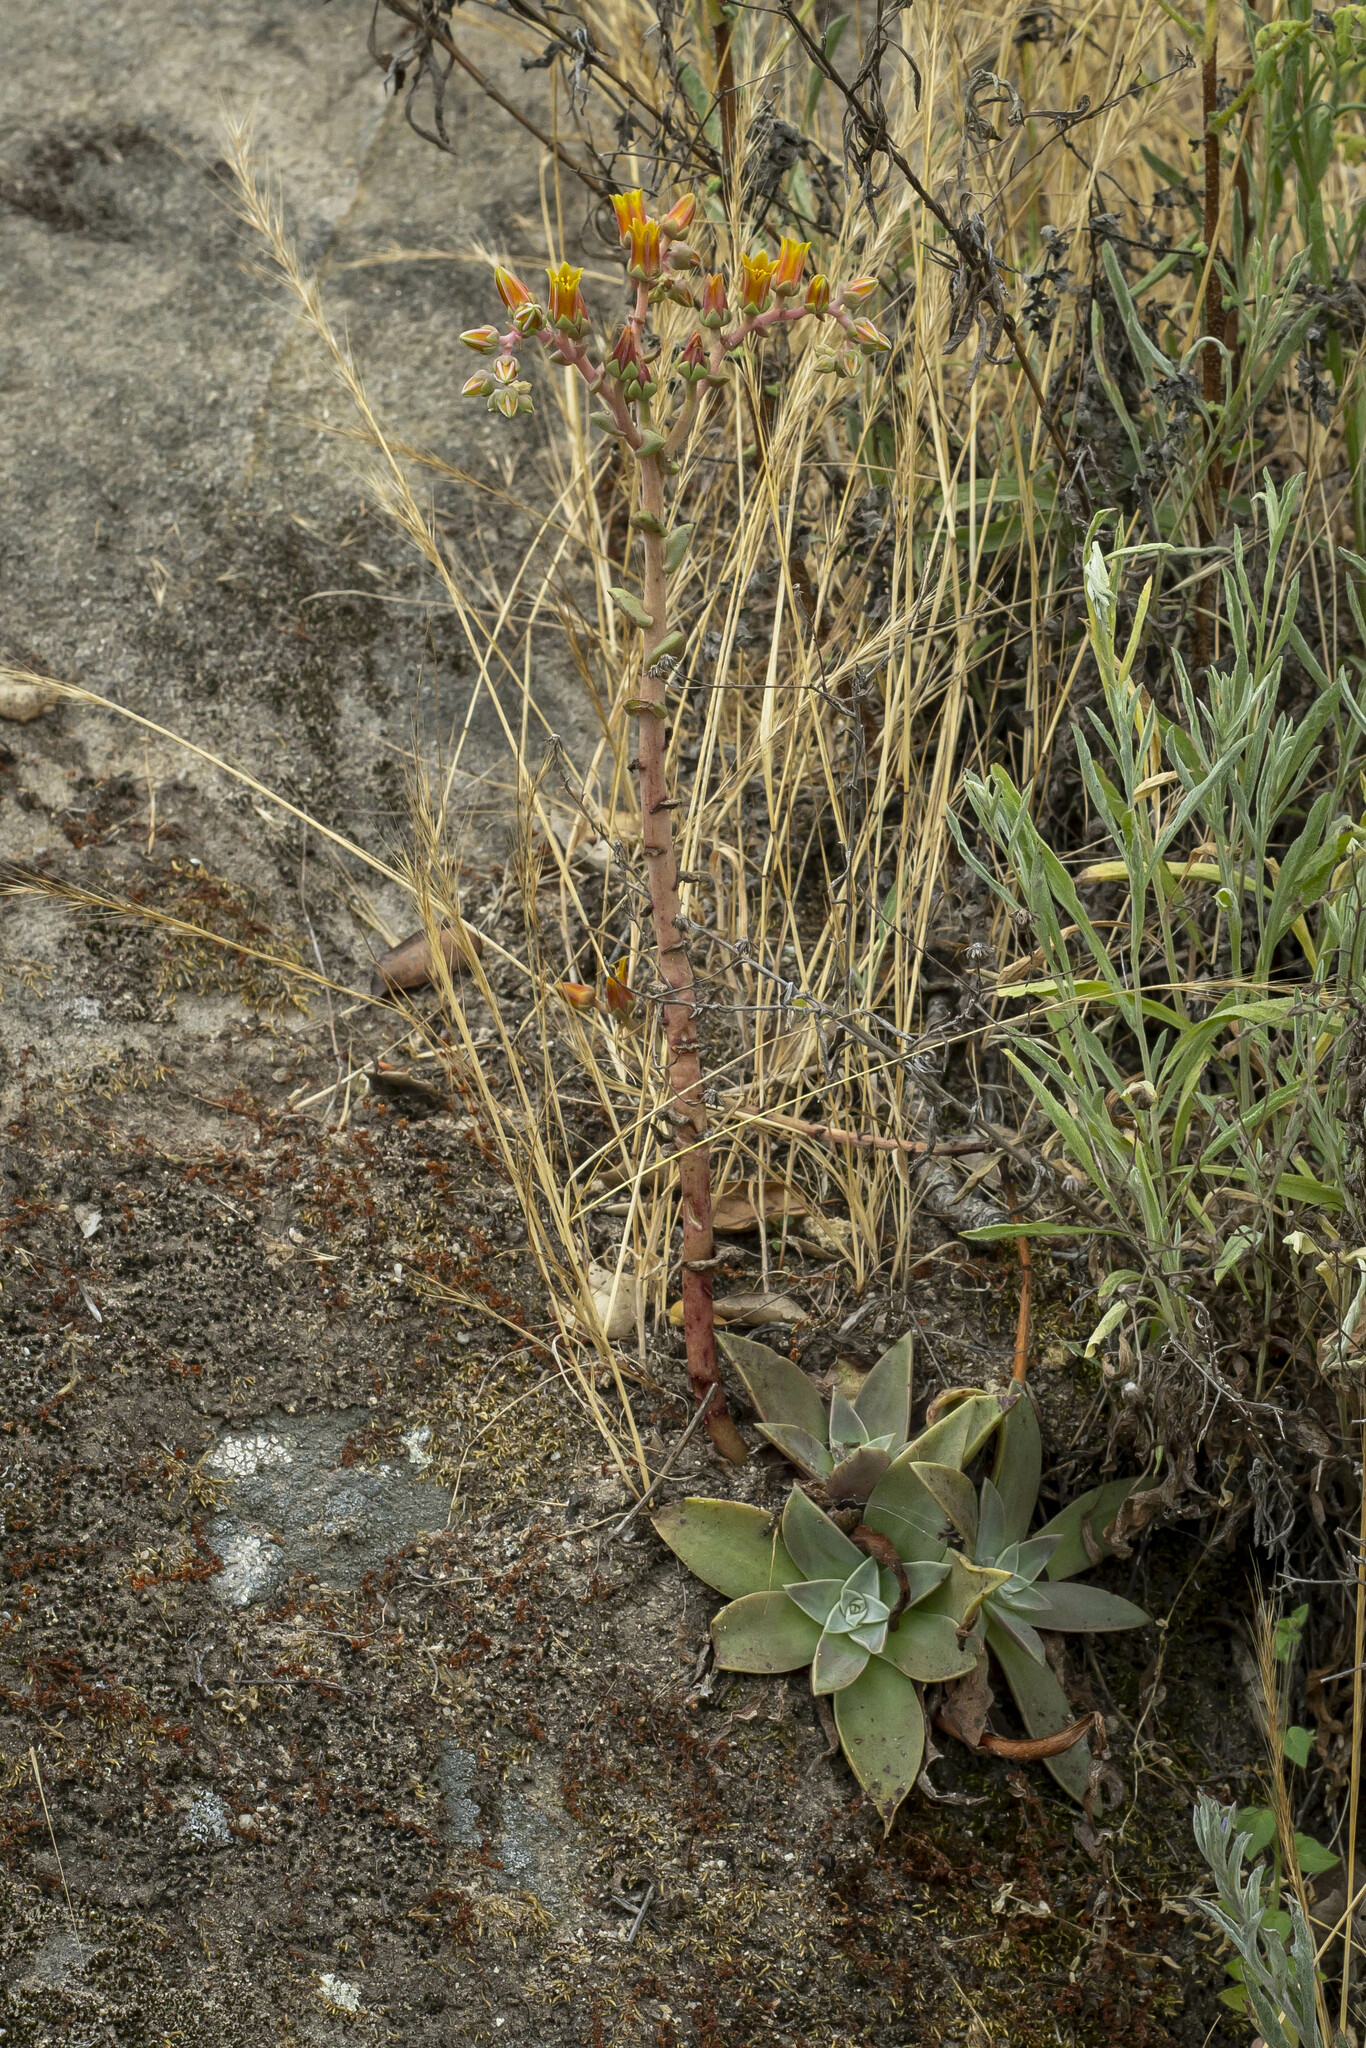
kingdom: Plantae
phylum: Tracheophyta
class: Magnoliopsida
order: Saxifragales
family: Crassulaceae
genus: Dudleya
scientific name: Dudleya lanceolata
